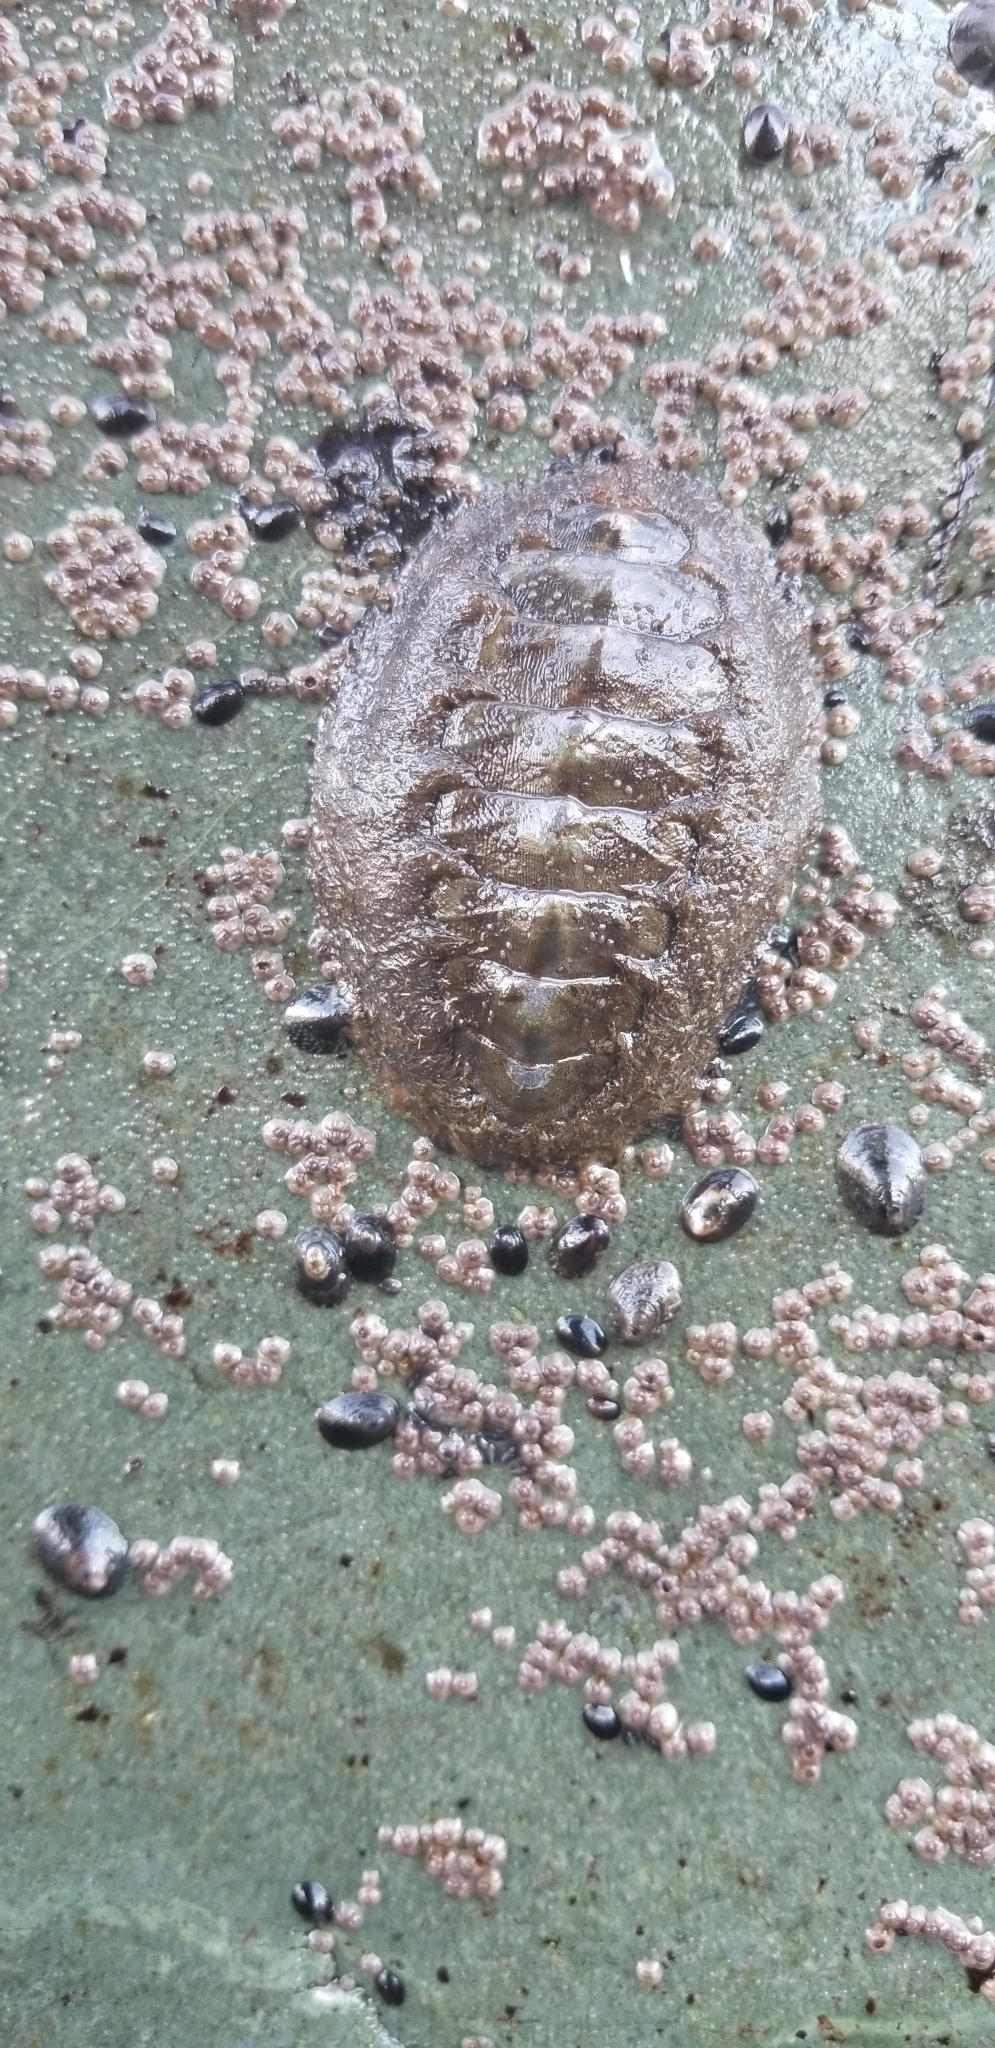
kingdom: Animalia
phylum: Mollusca
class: Polyplacophora
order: Chitonida
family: Mopaliidae
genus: Mopalia
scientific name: Mopalia muscosa
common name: Mossy chiton
